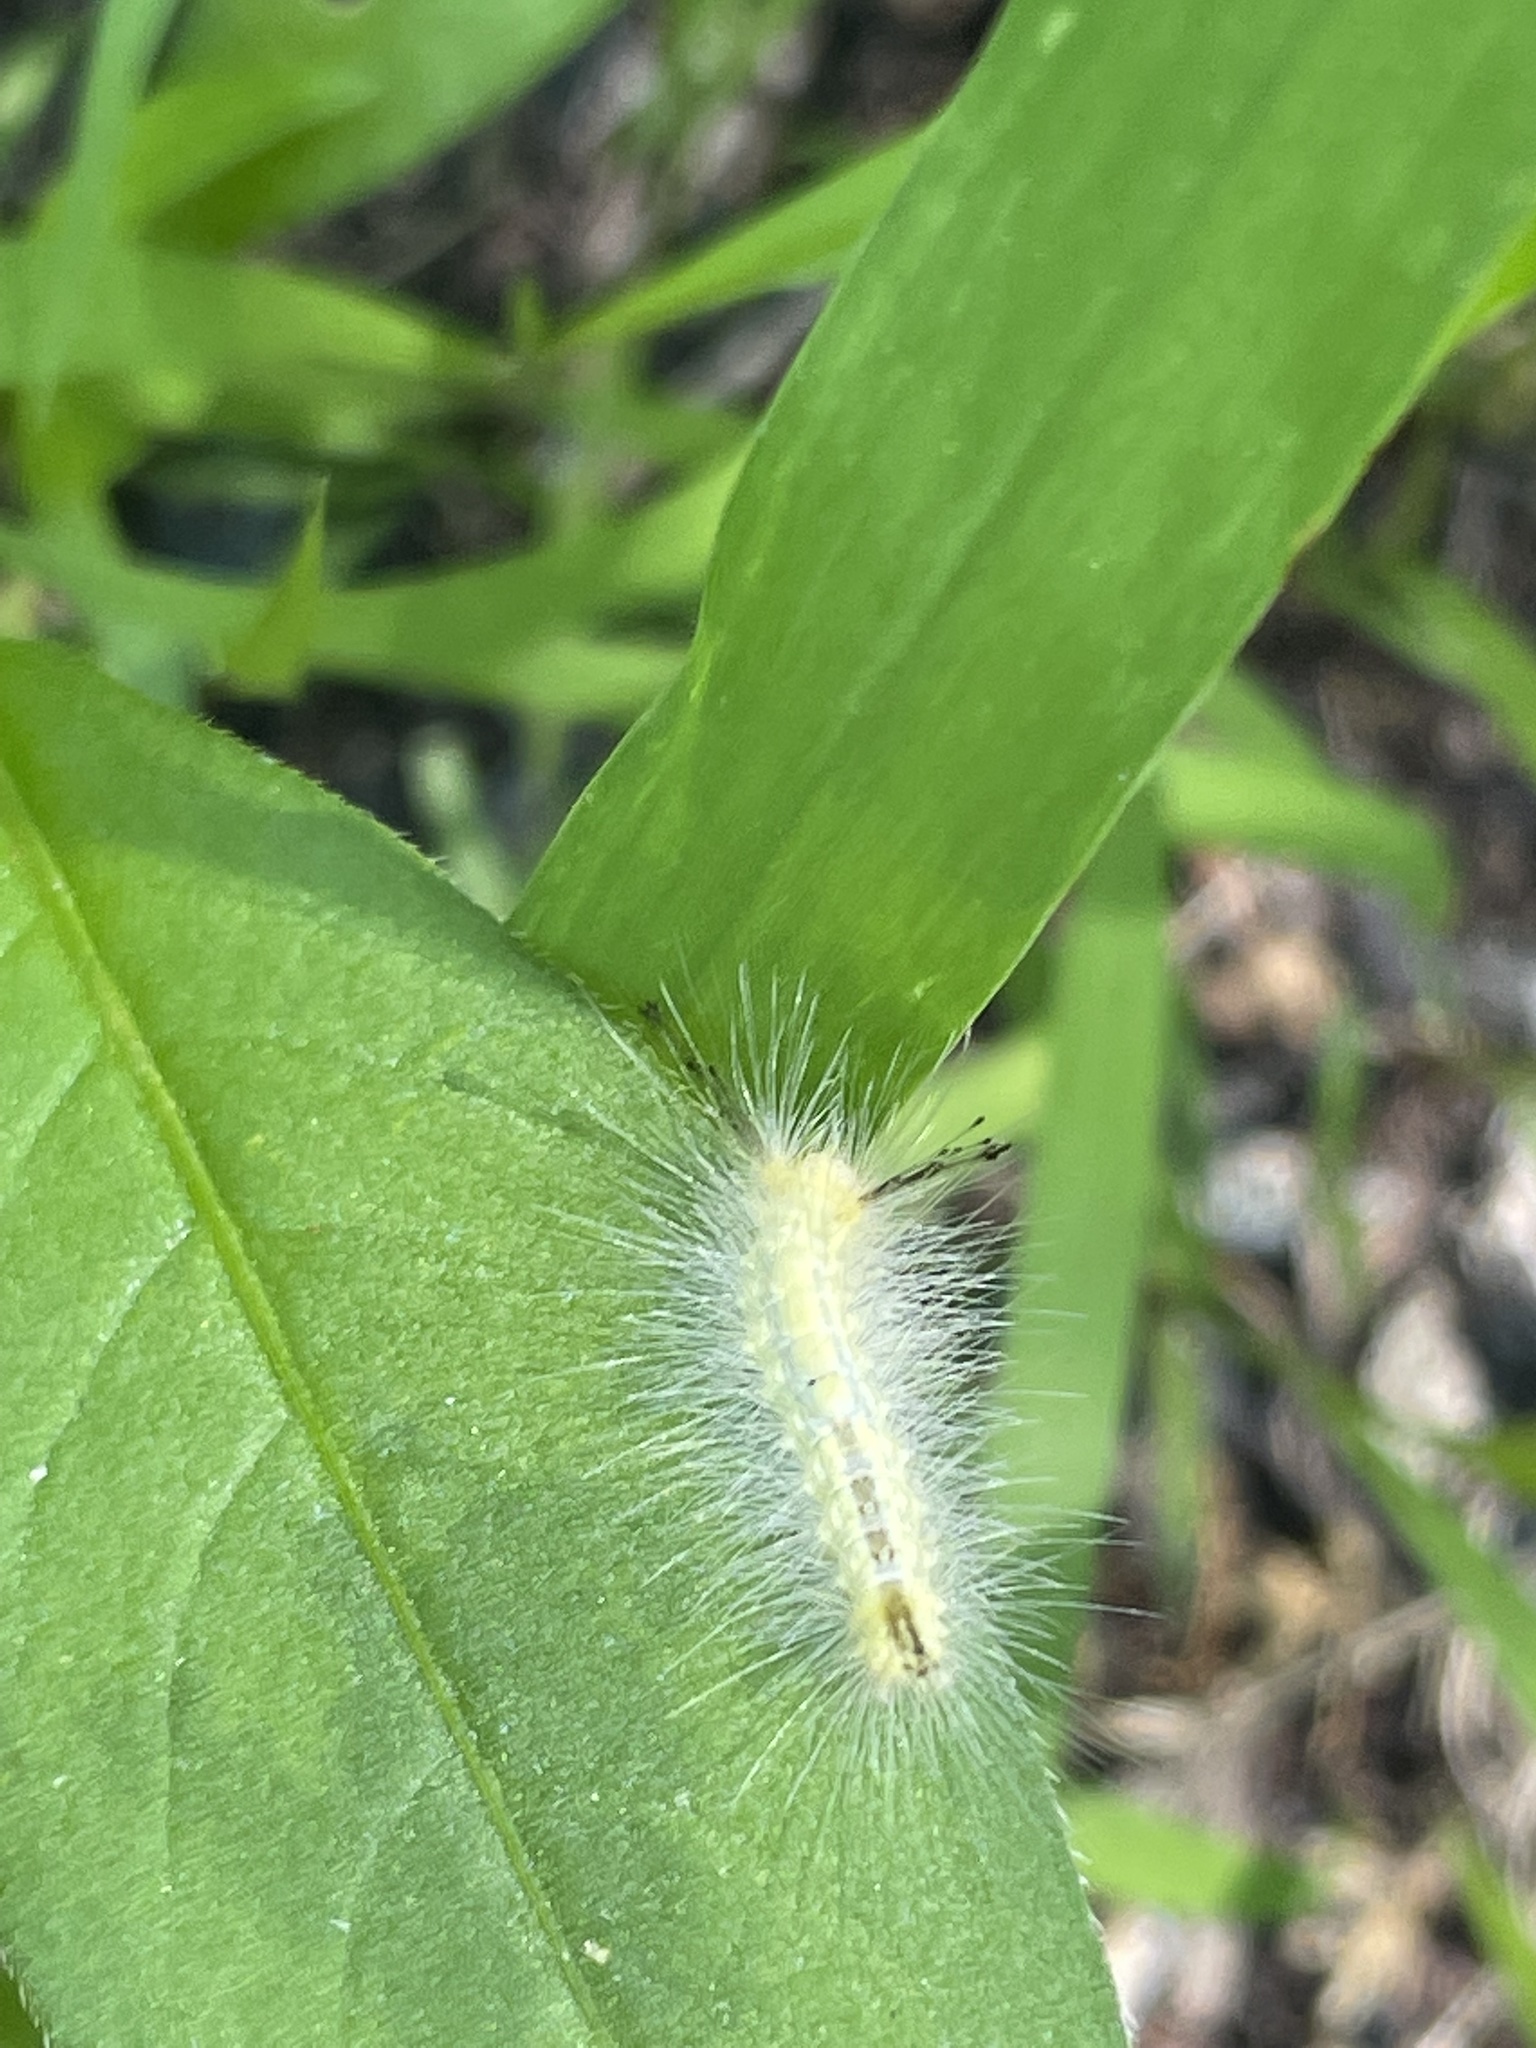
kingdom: Animalia
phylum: Arthropoda
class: Insecta
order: Lepidoptera
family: Erebidae
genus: Orgyia
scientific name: Orgyia definita
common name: Definite tussock moth
